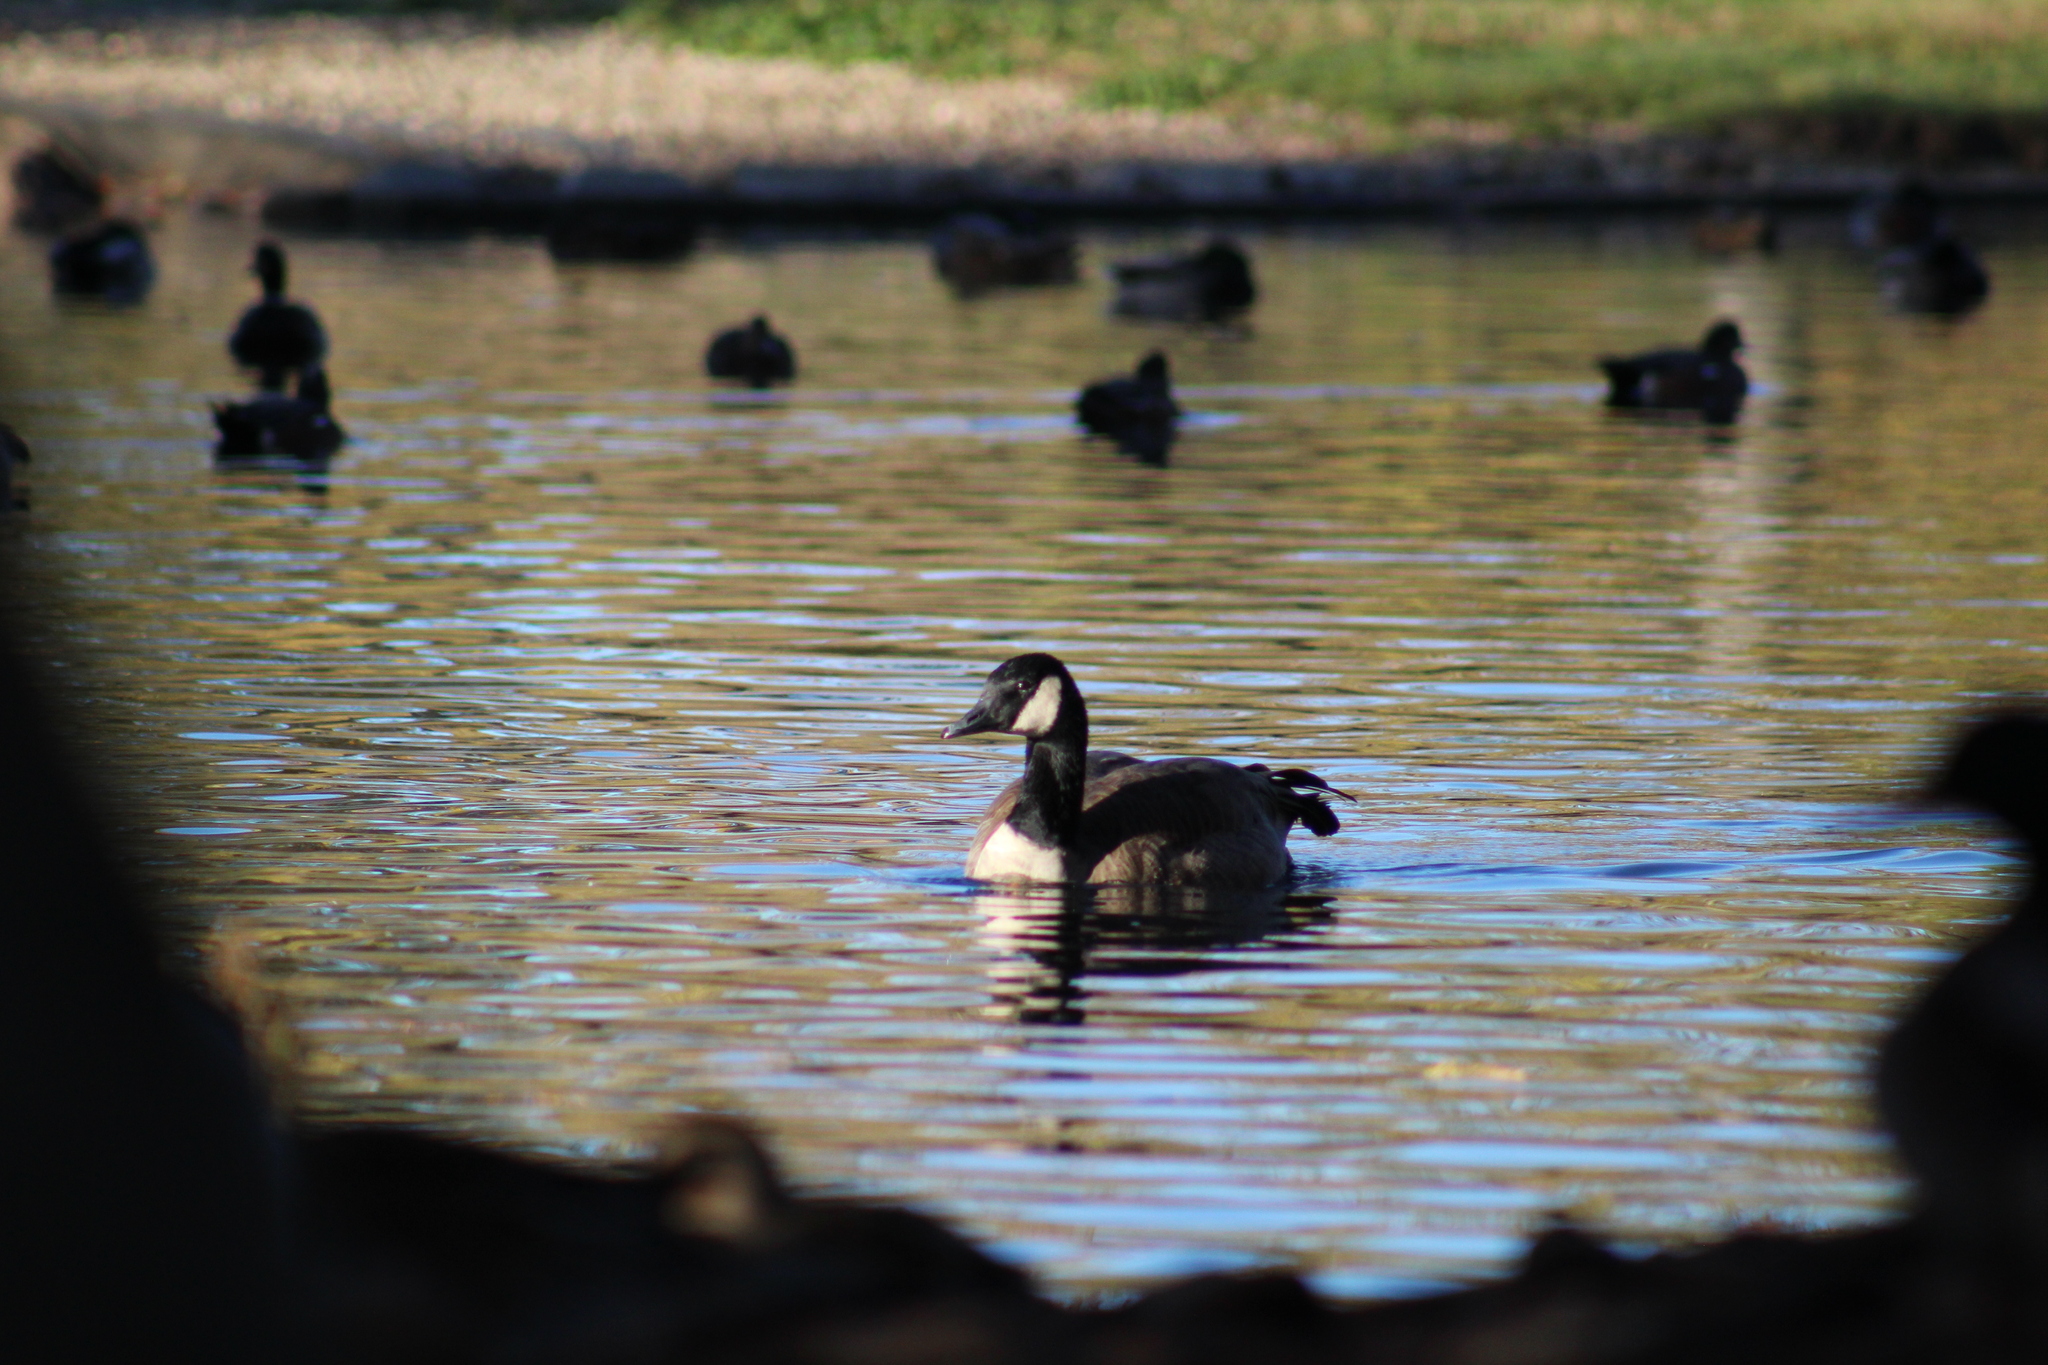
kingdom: Animalia
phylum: Chordata
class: Aves
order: Anseriformes
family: Anatidae
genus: Branta
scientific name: Branta canadensis
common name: Canada goose
